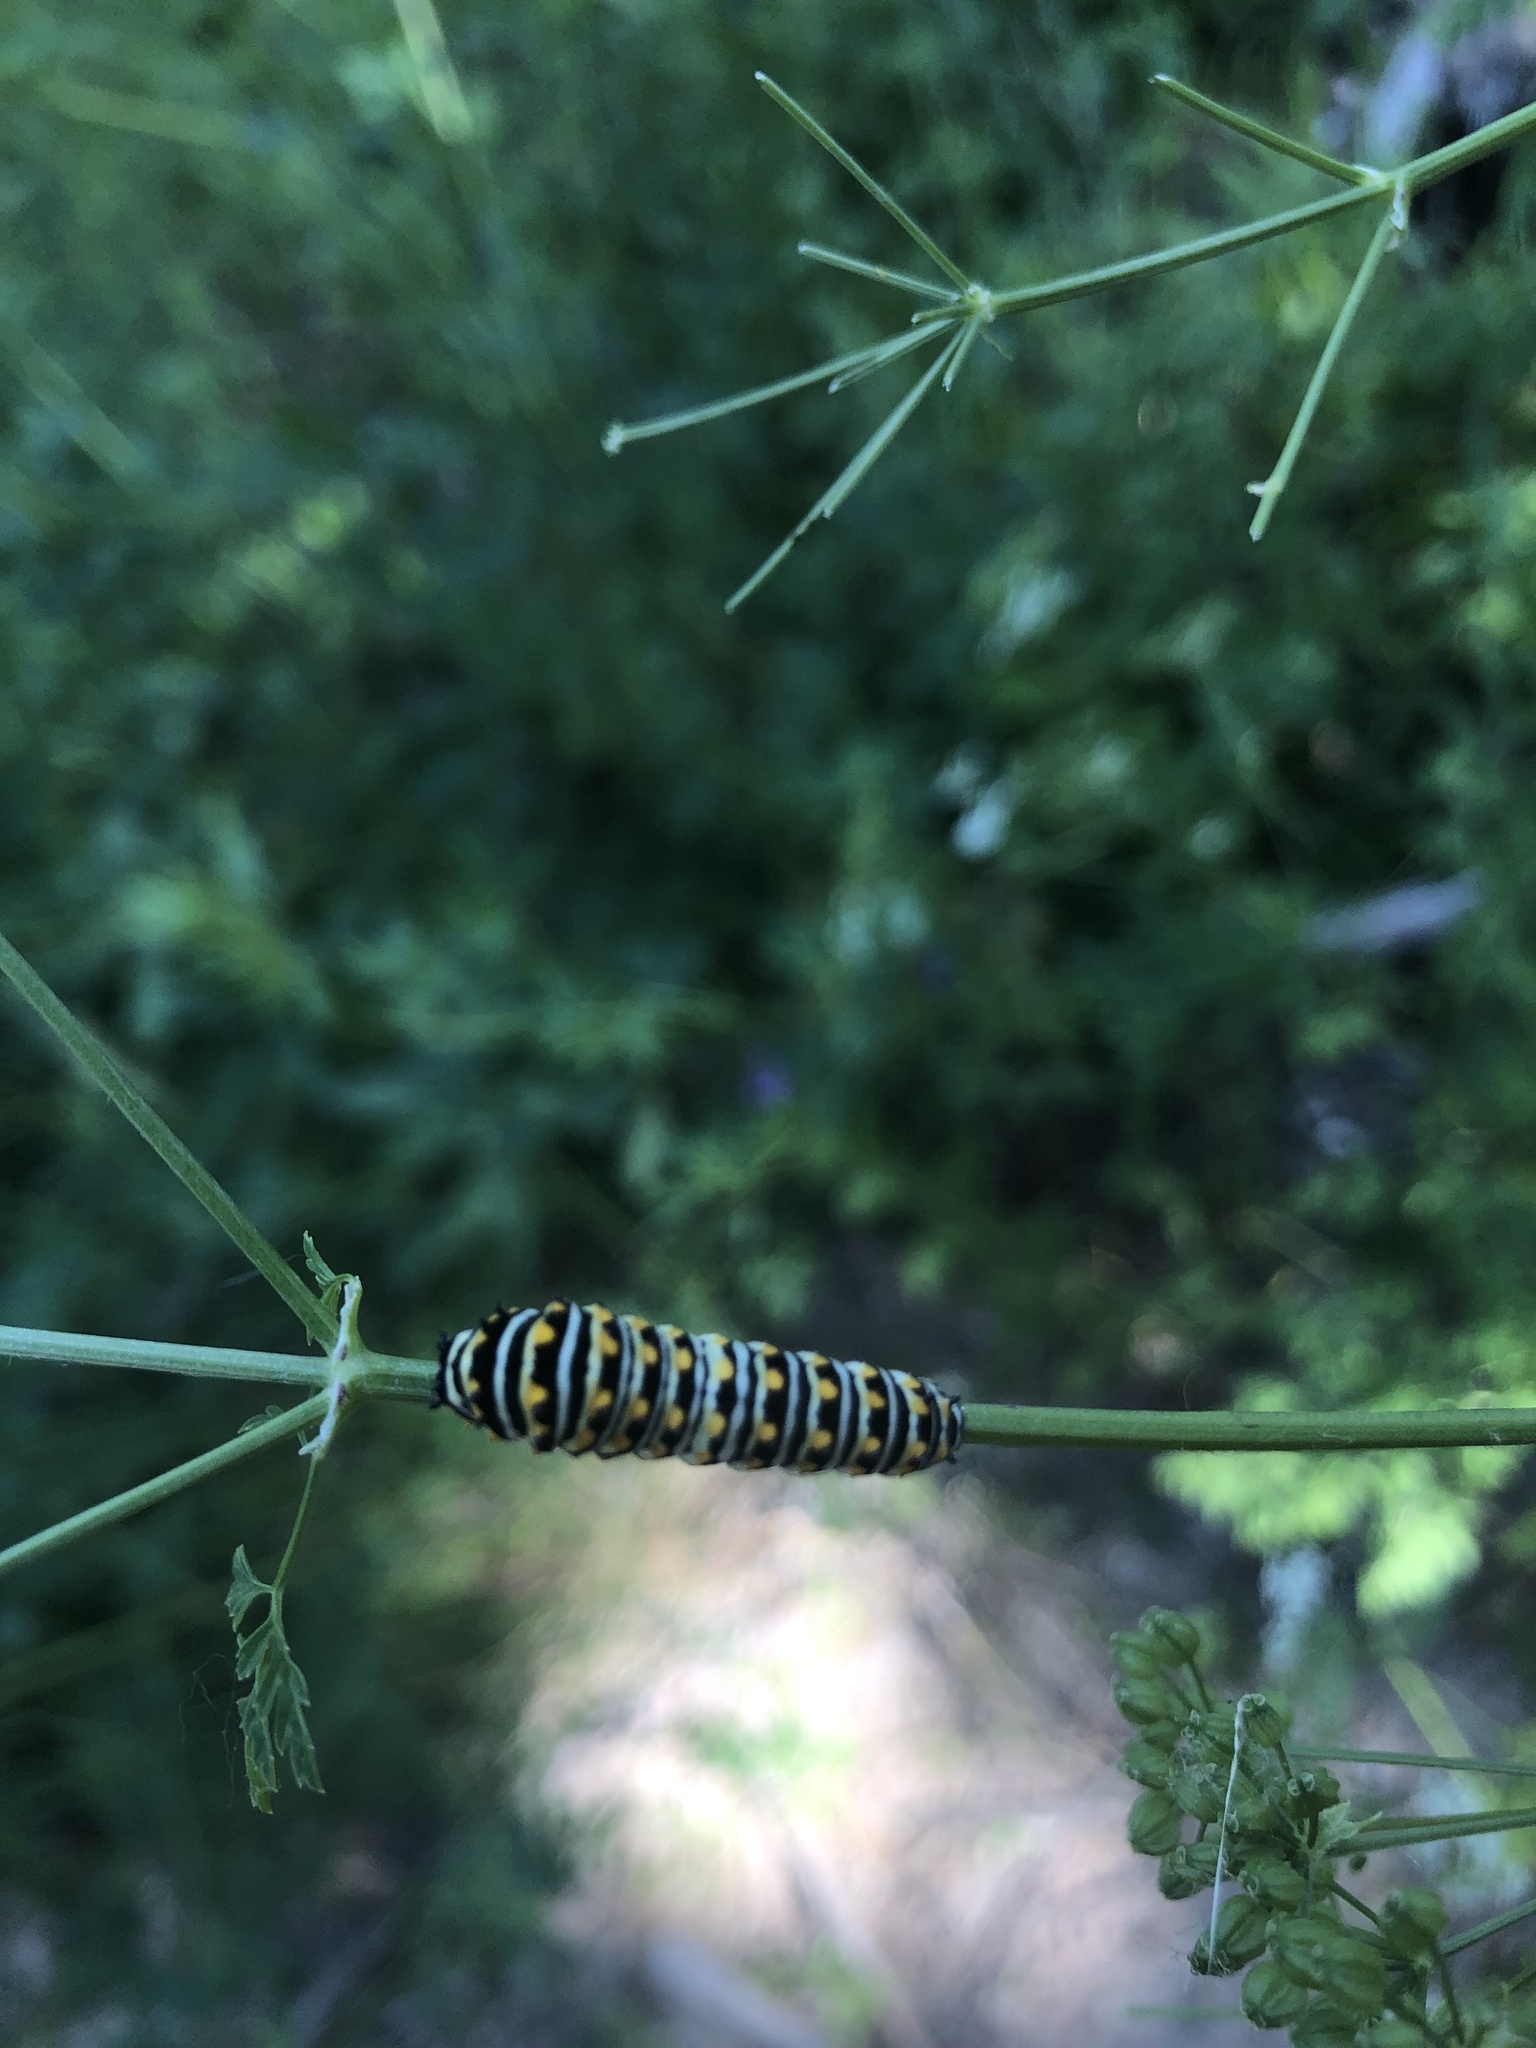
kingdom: Animalia
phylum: Arthropoda
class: Insecta
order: Lepidoptera
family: Papilionidae
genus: Papilio
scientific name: Papilio polyxenes
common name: Black swallowtail
